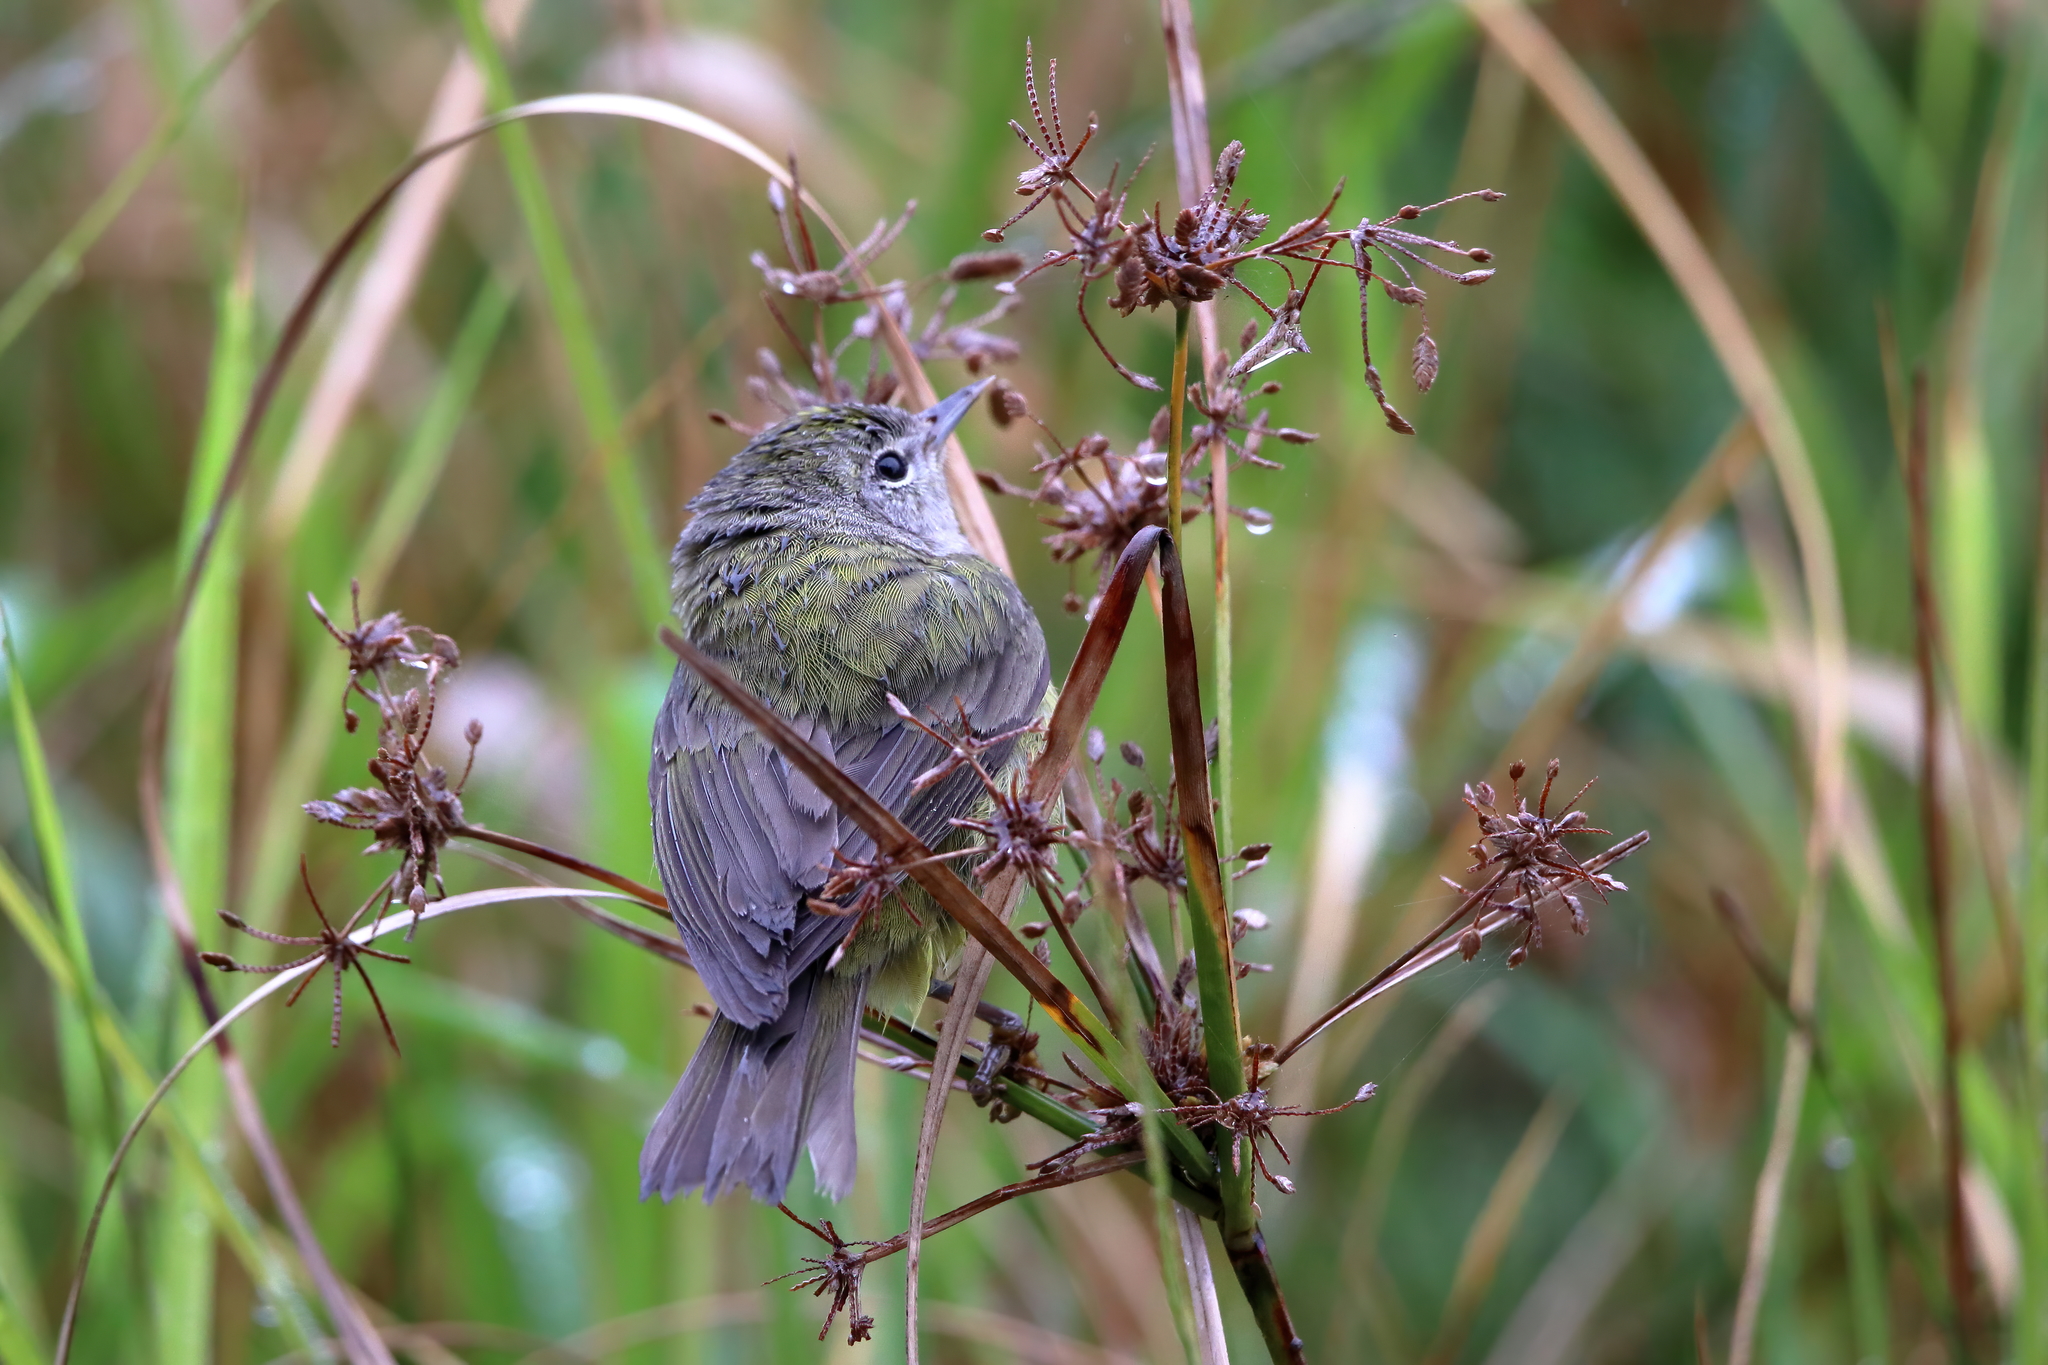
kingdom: Animalia
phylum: Chordata
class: Aves
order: Passeriformes
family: Parulidae
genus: Leiothlypis
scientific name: Leiothlypis celata
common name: Orange-crowned warbler
